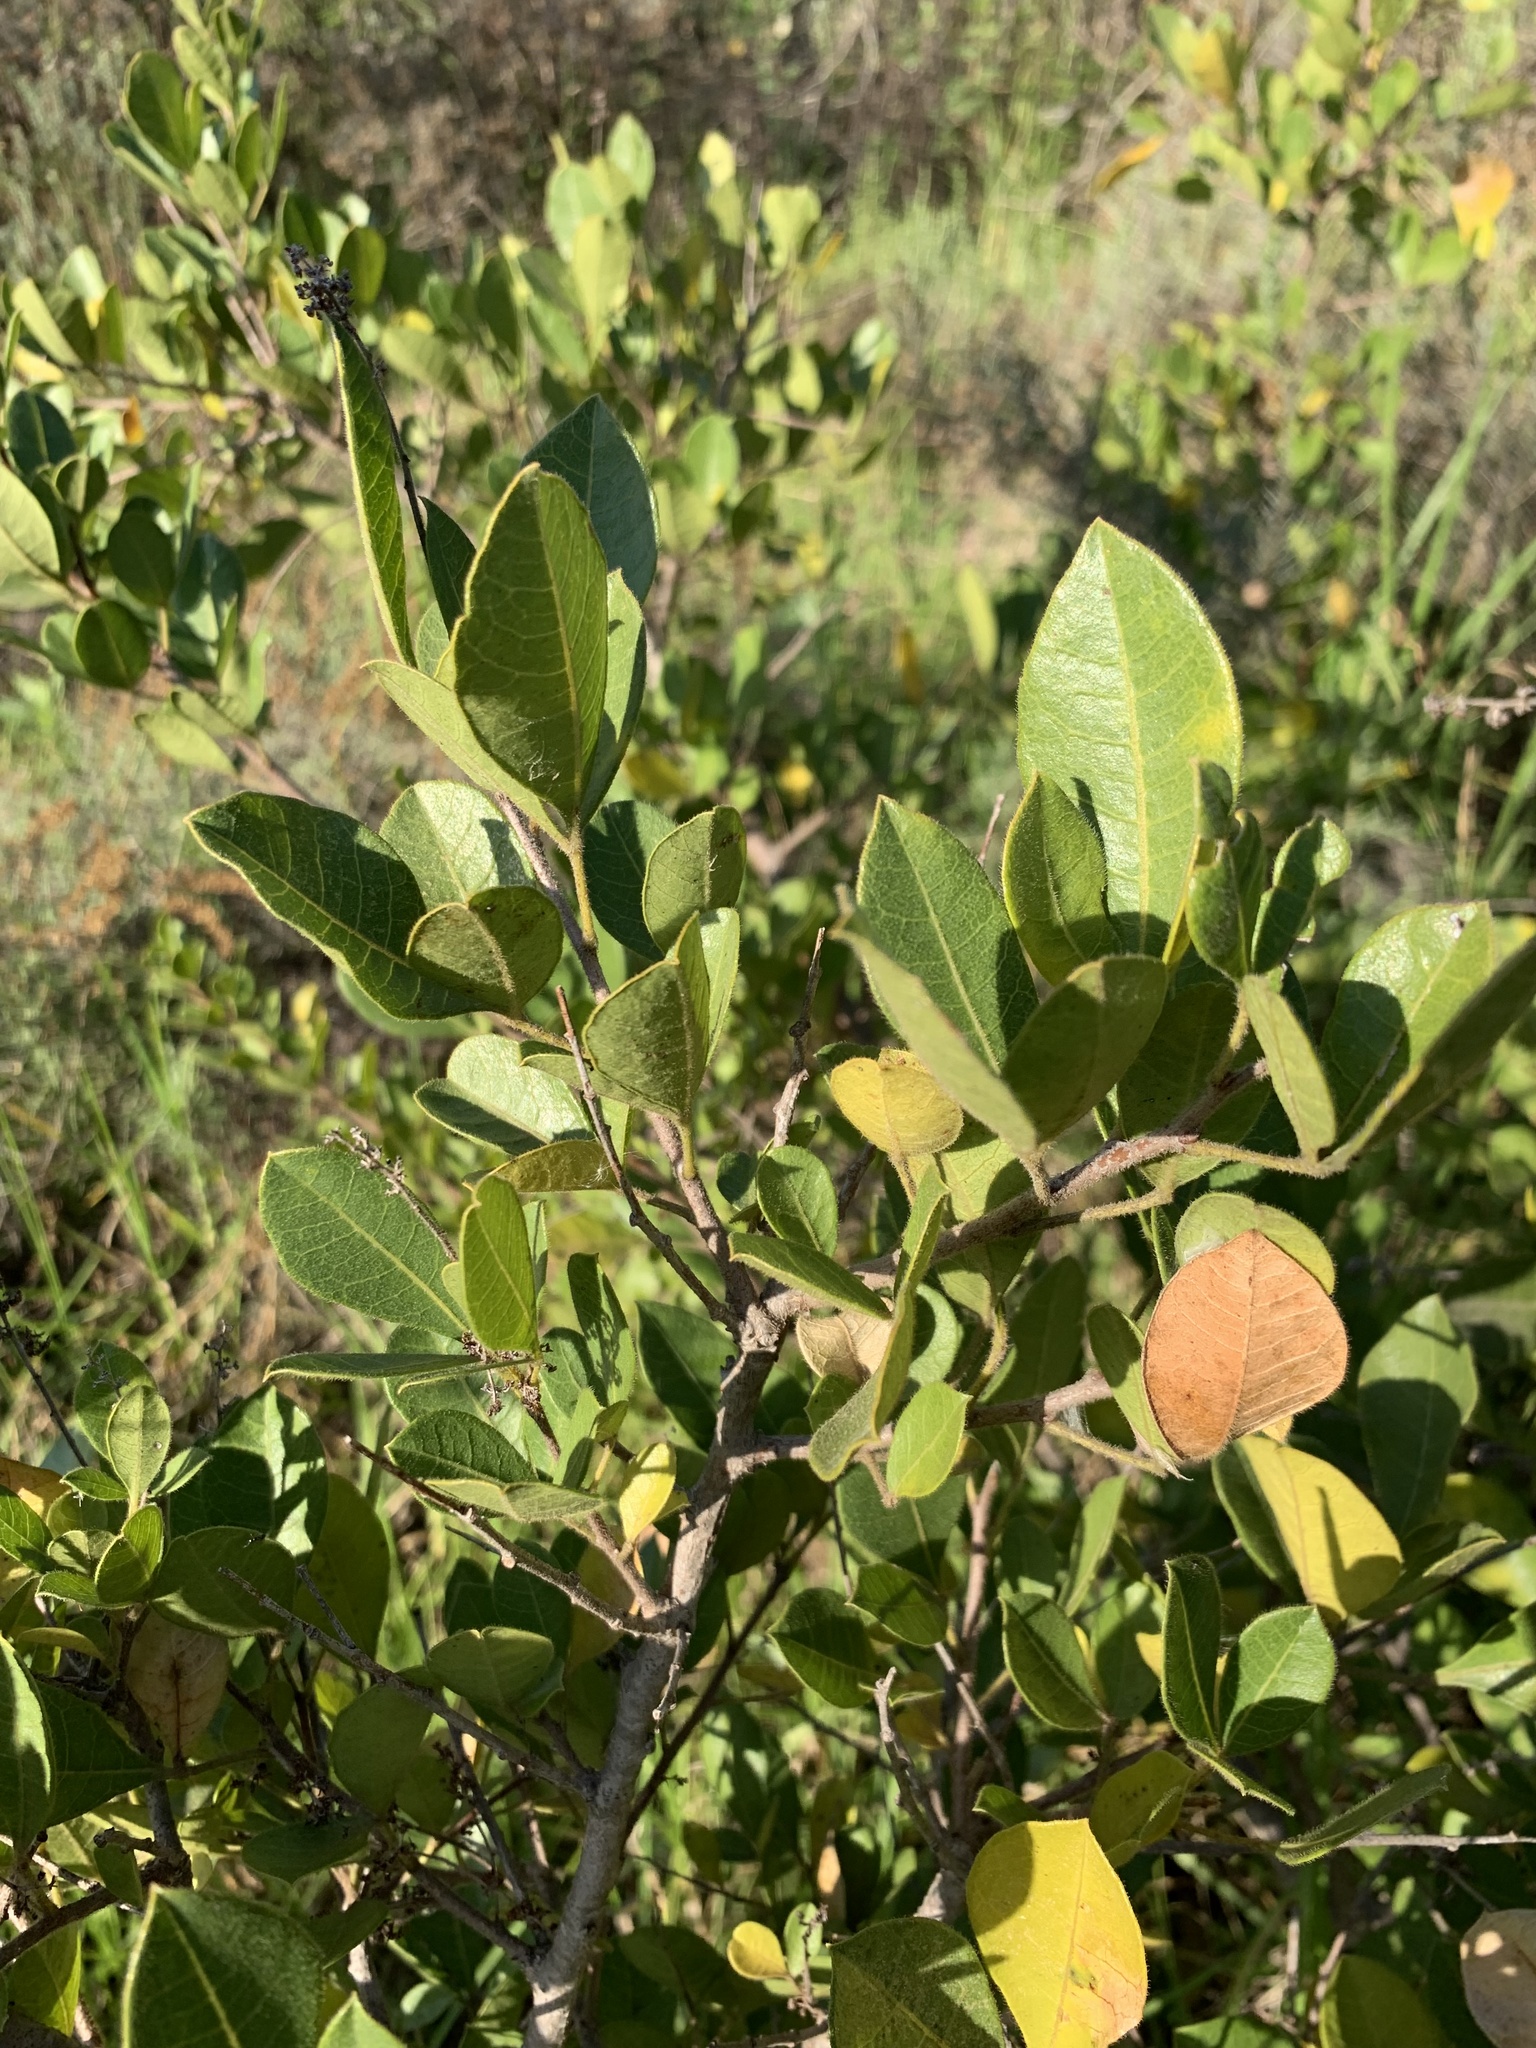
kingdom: Plantae
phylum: Tracheophyta
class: Magnoliopsida
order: Sapindales
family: Anacardiaceae
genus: Searsia
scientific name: Searsia laevigata
